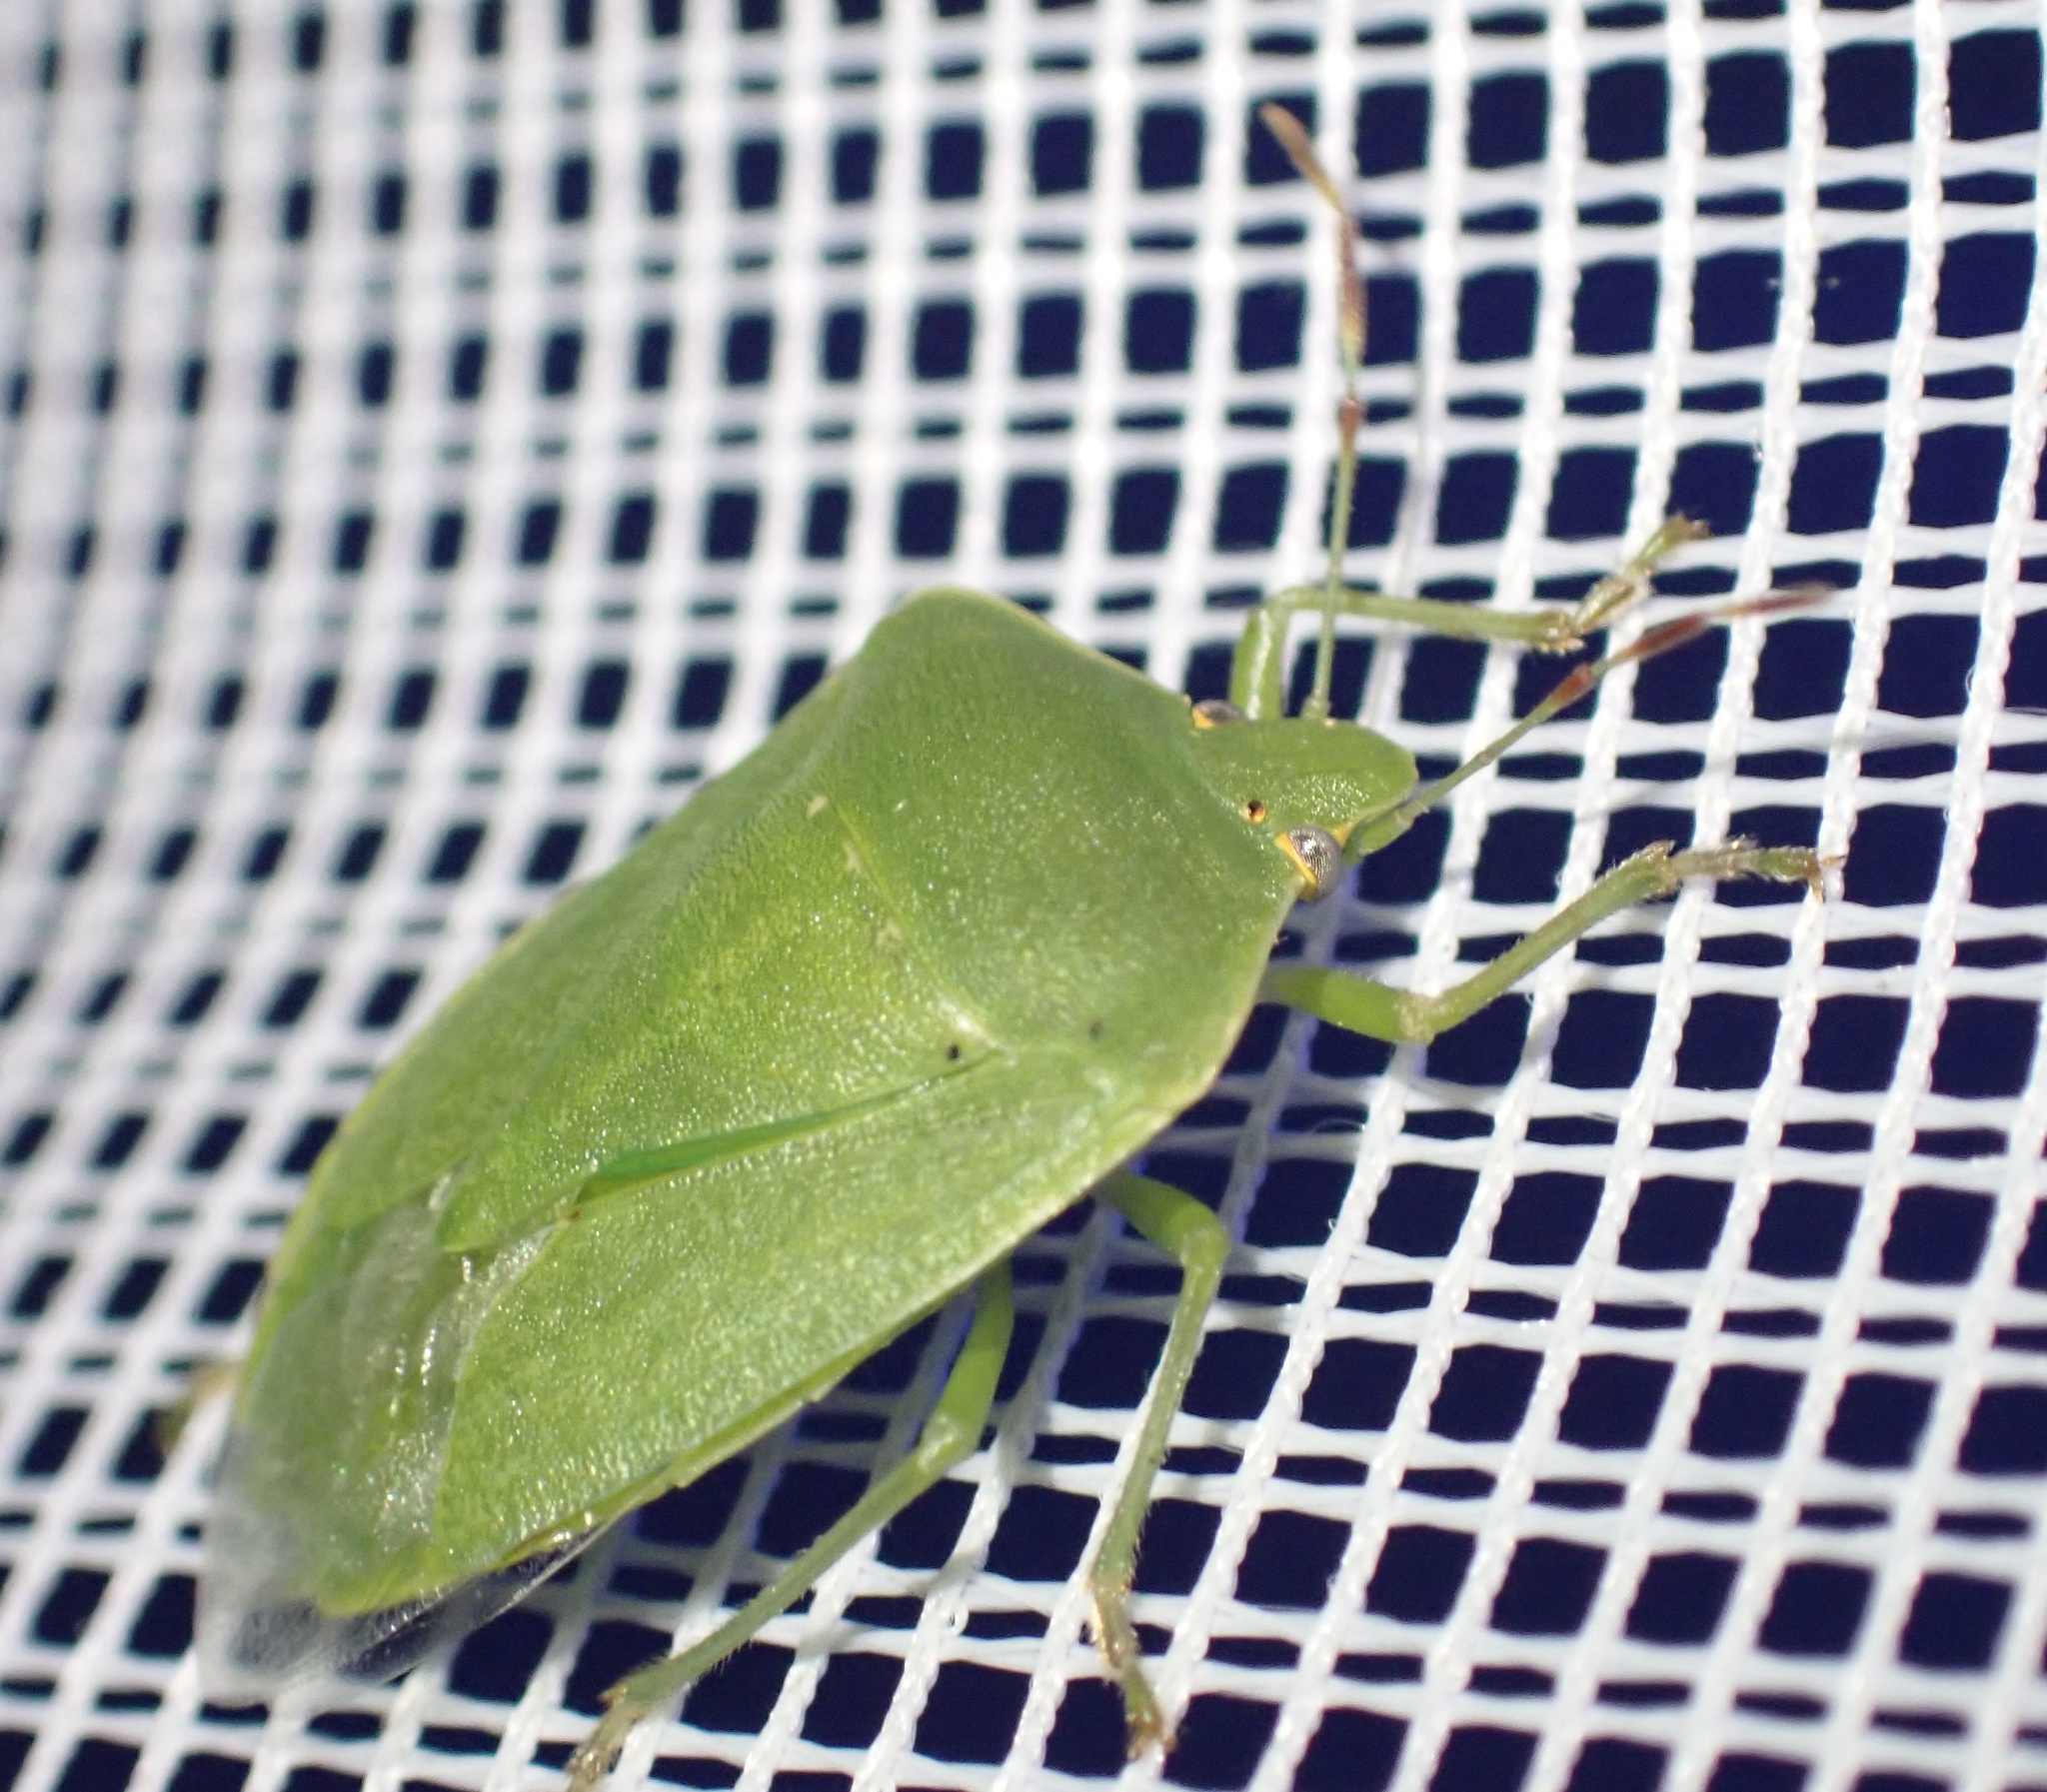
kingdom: Animalia
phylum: Arthropoda
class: Insecta
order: Hemiptera
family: Pentatomidae
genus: Nezara
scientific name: Nezara viridula
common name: Southern green stink bug
